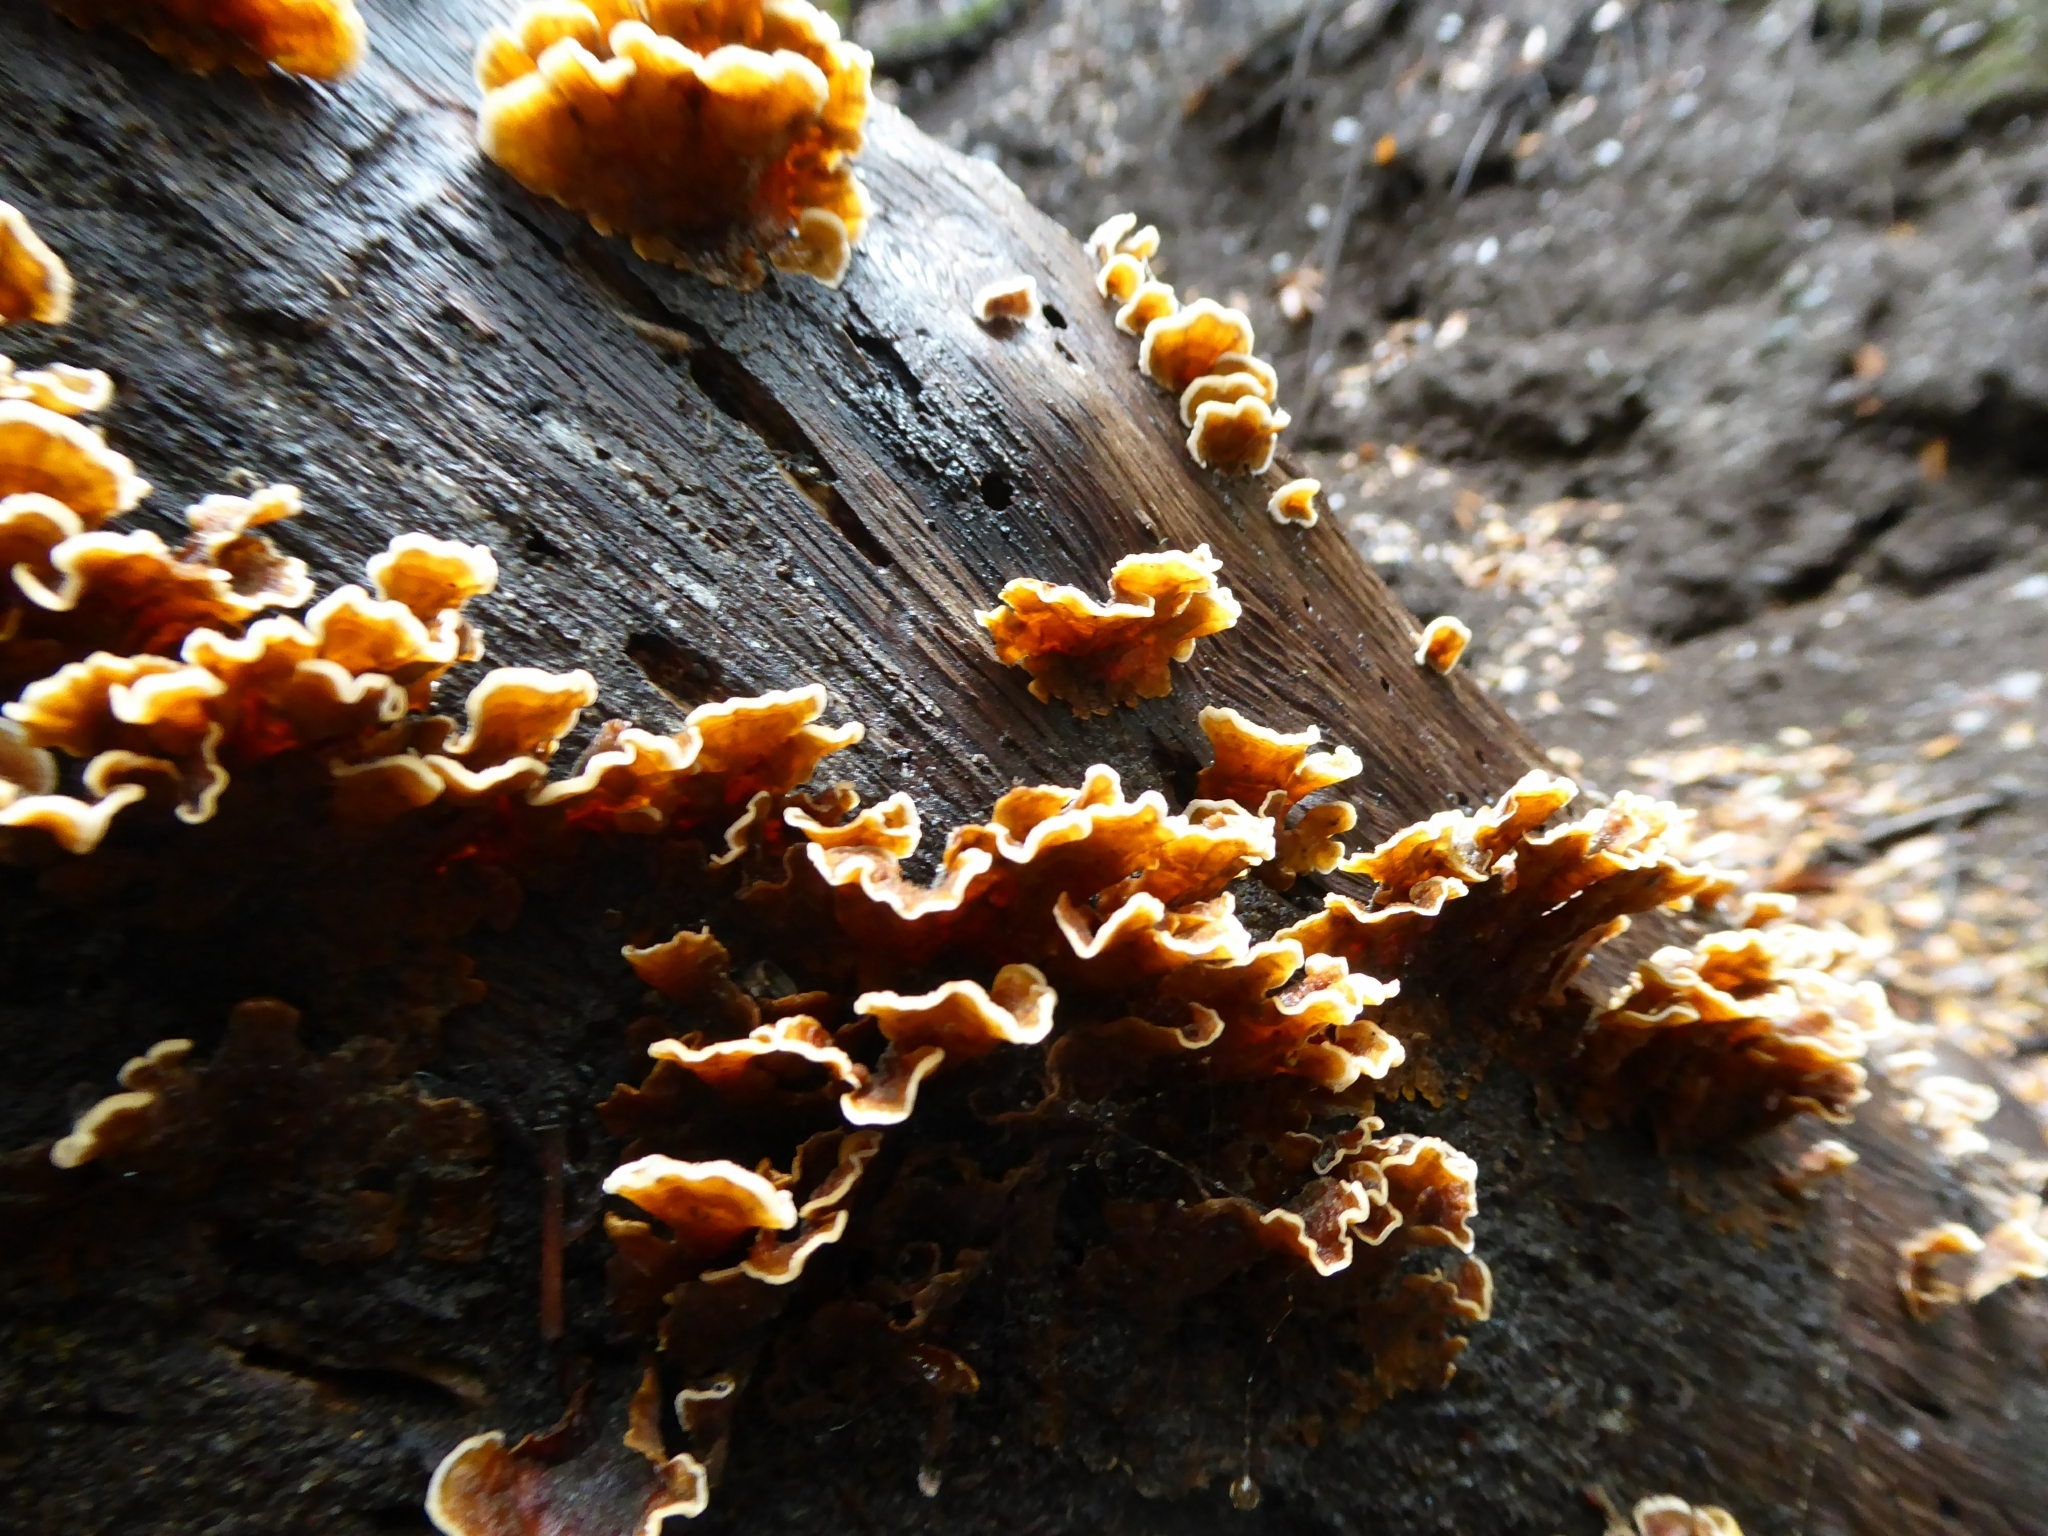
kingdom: Fungi
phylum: Basidiomycota
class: Agaricomycetes
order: Russulales
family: Stereaceae
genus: Stereum
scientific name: Stereum hirsutum
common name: Hairy curtain crust
